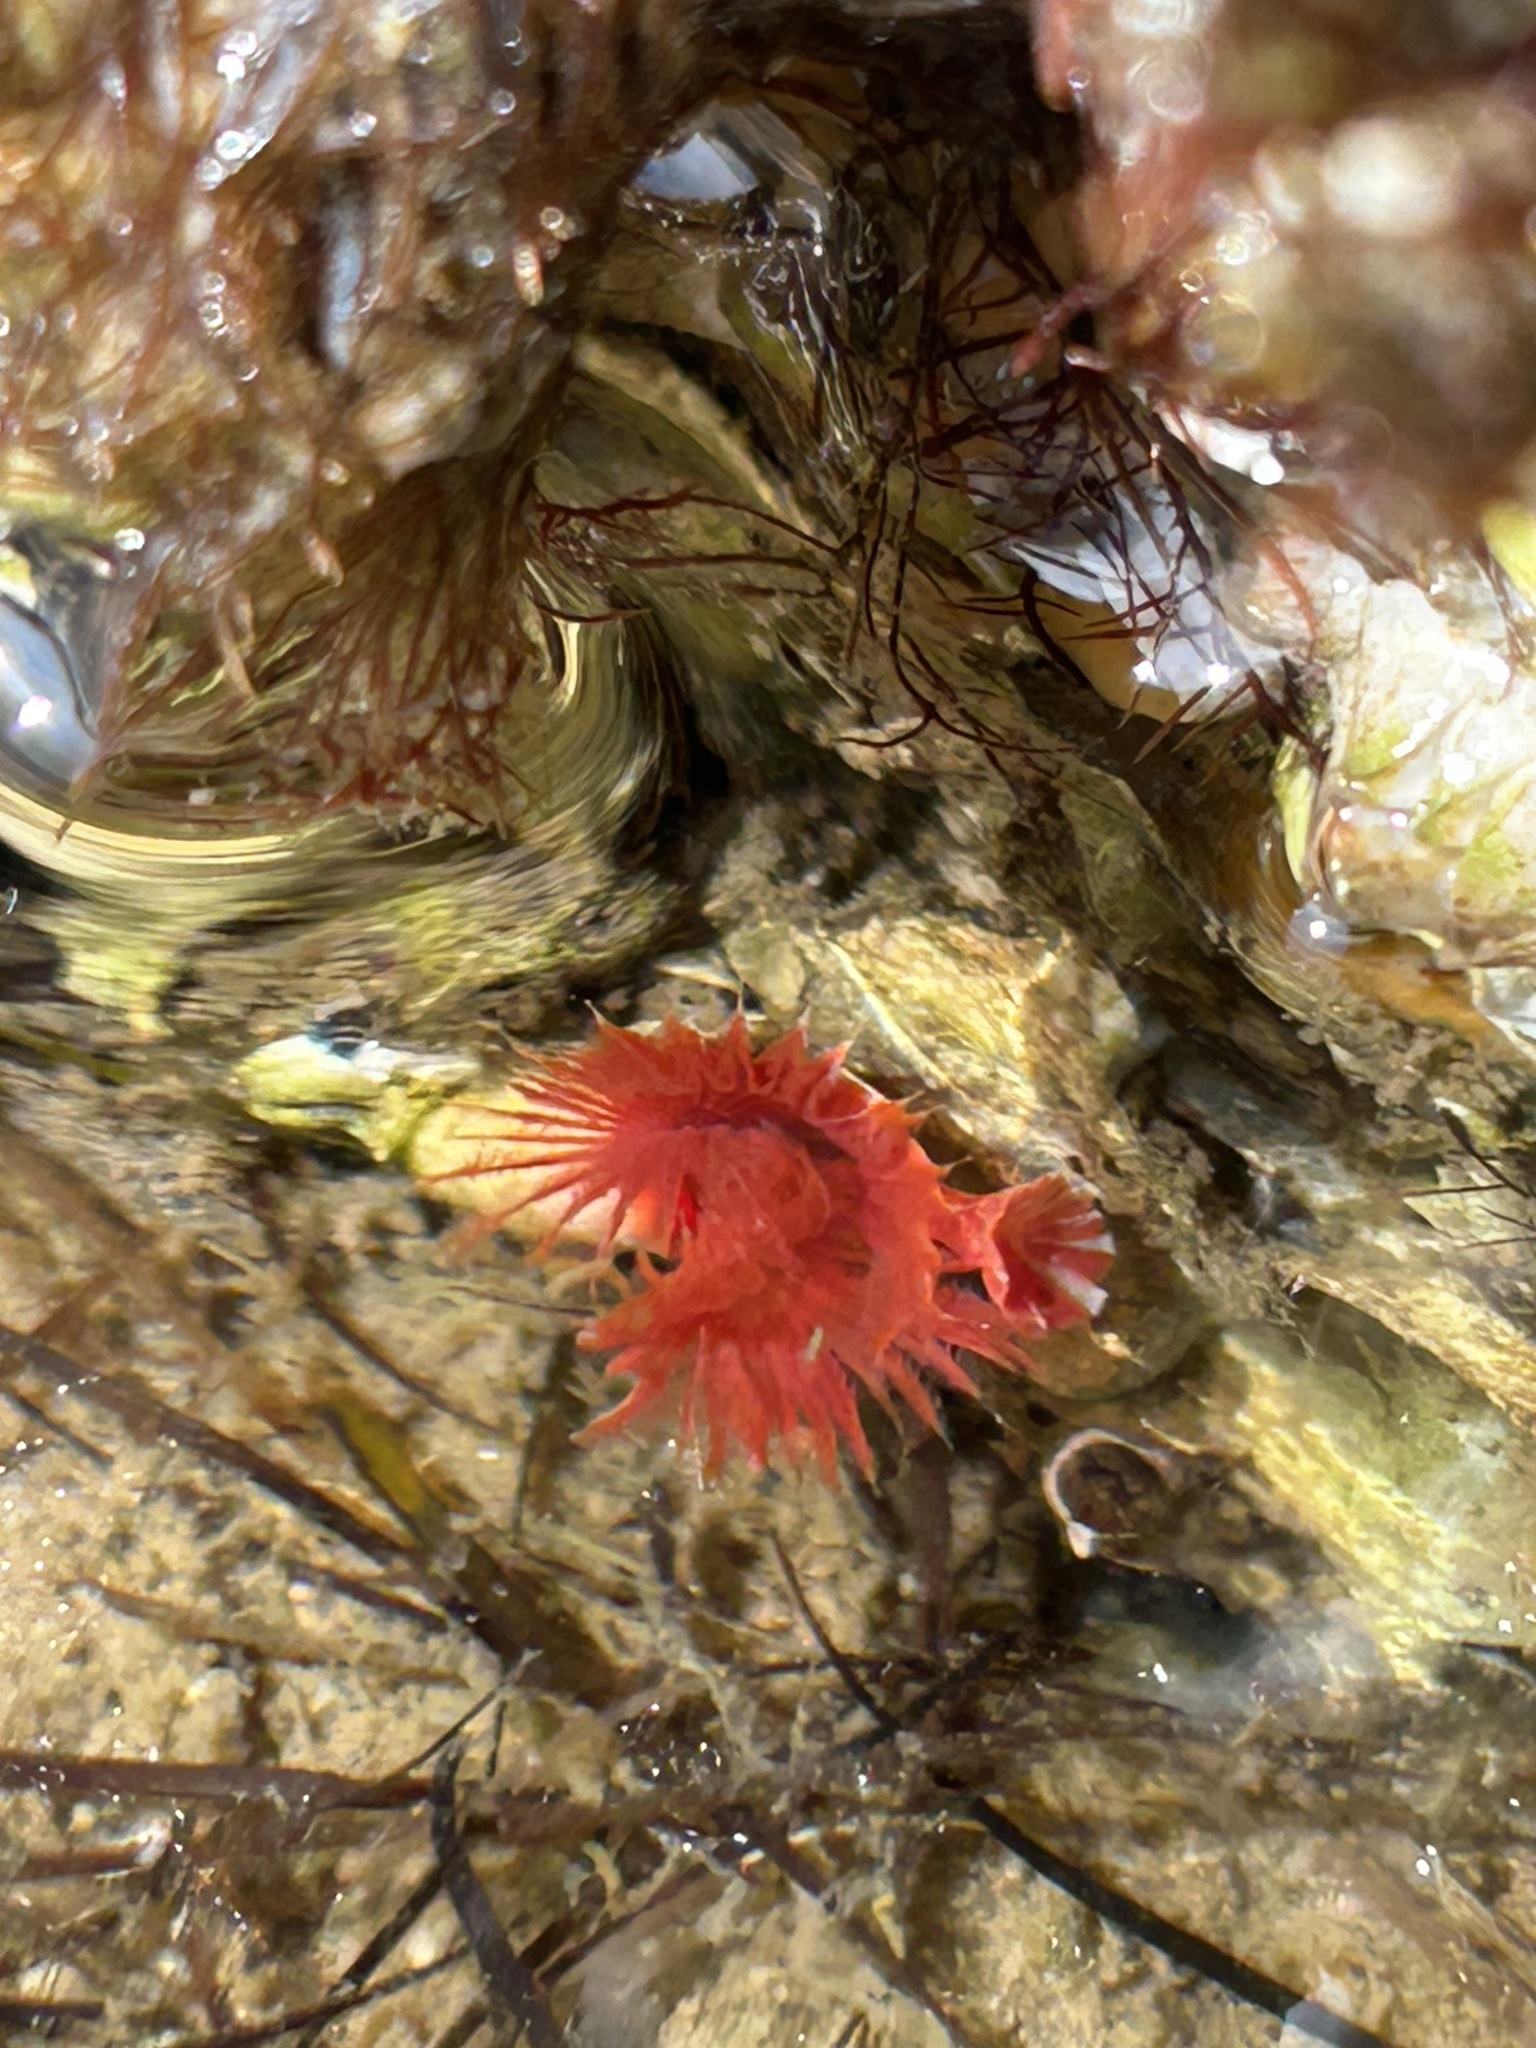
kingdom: Animalia
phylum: Annelida
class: Polychaeta
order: Sabellida
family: Serpulidae
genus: Serpula
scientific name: Serpula vermicularis
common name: Calcareous tubeworm
